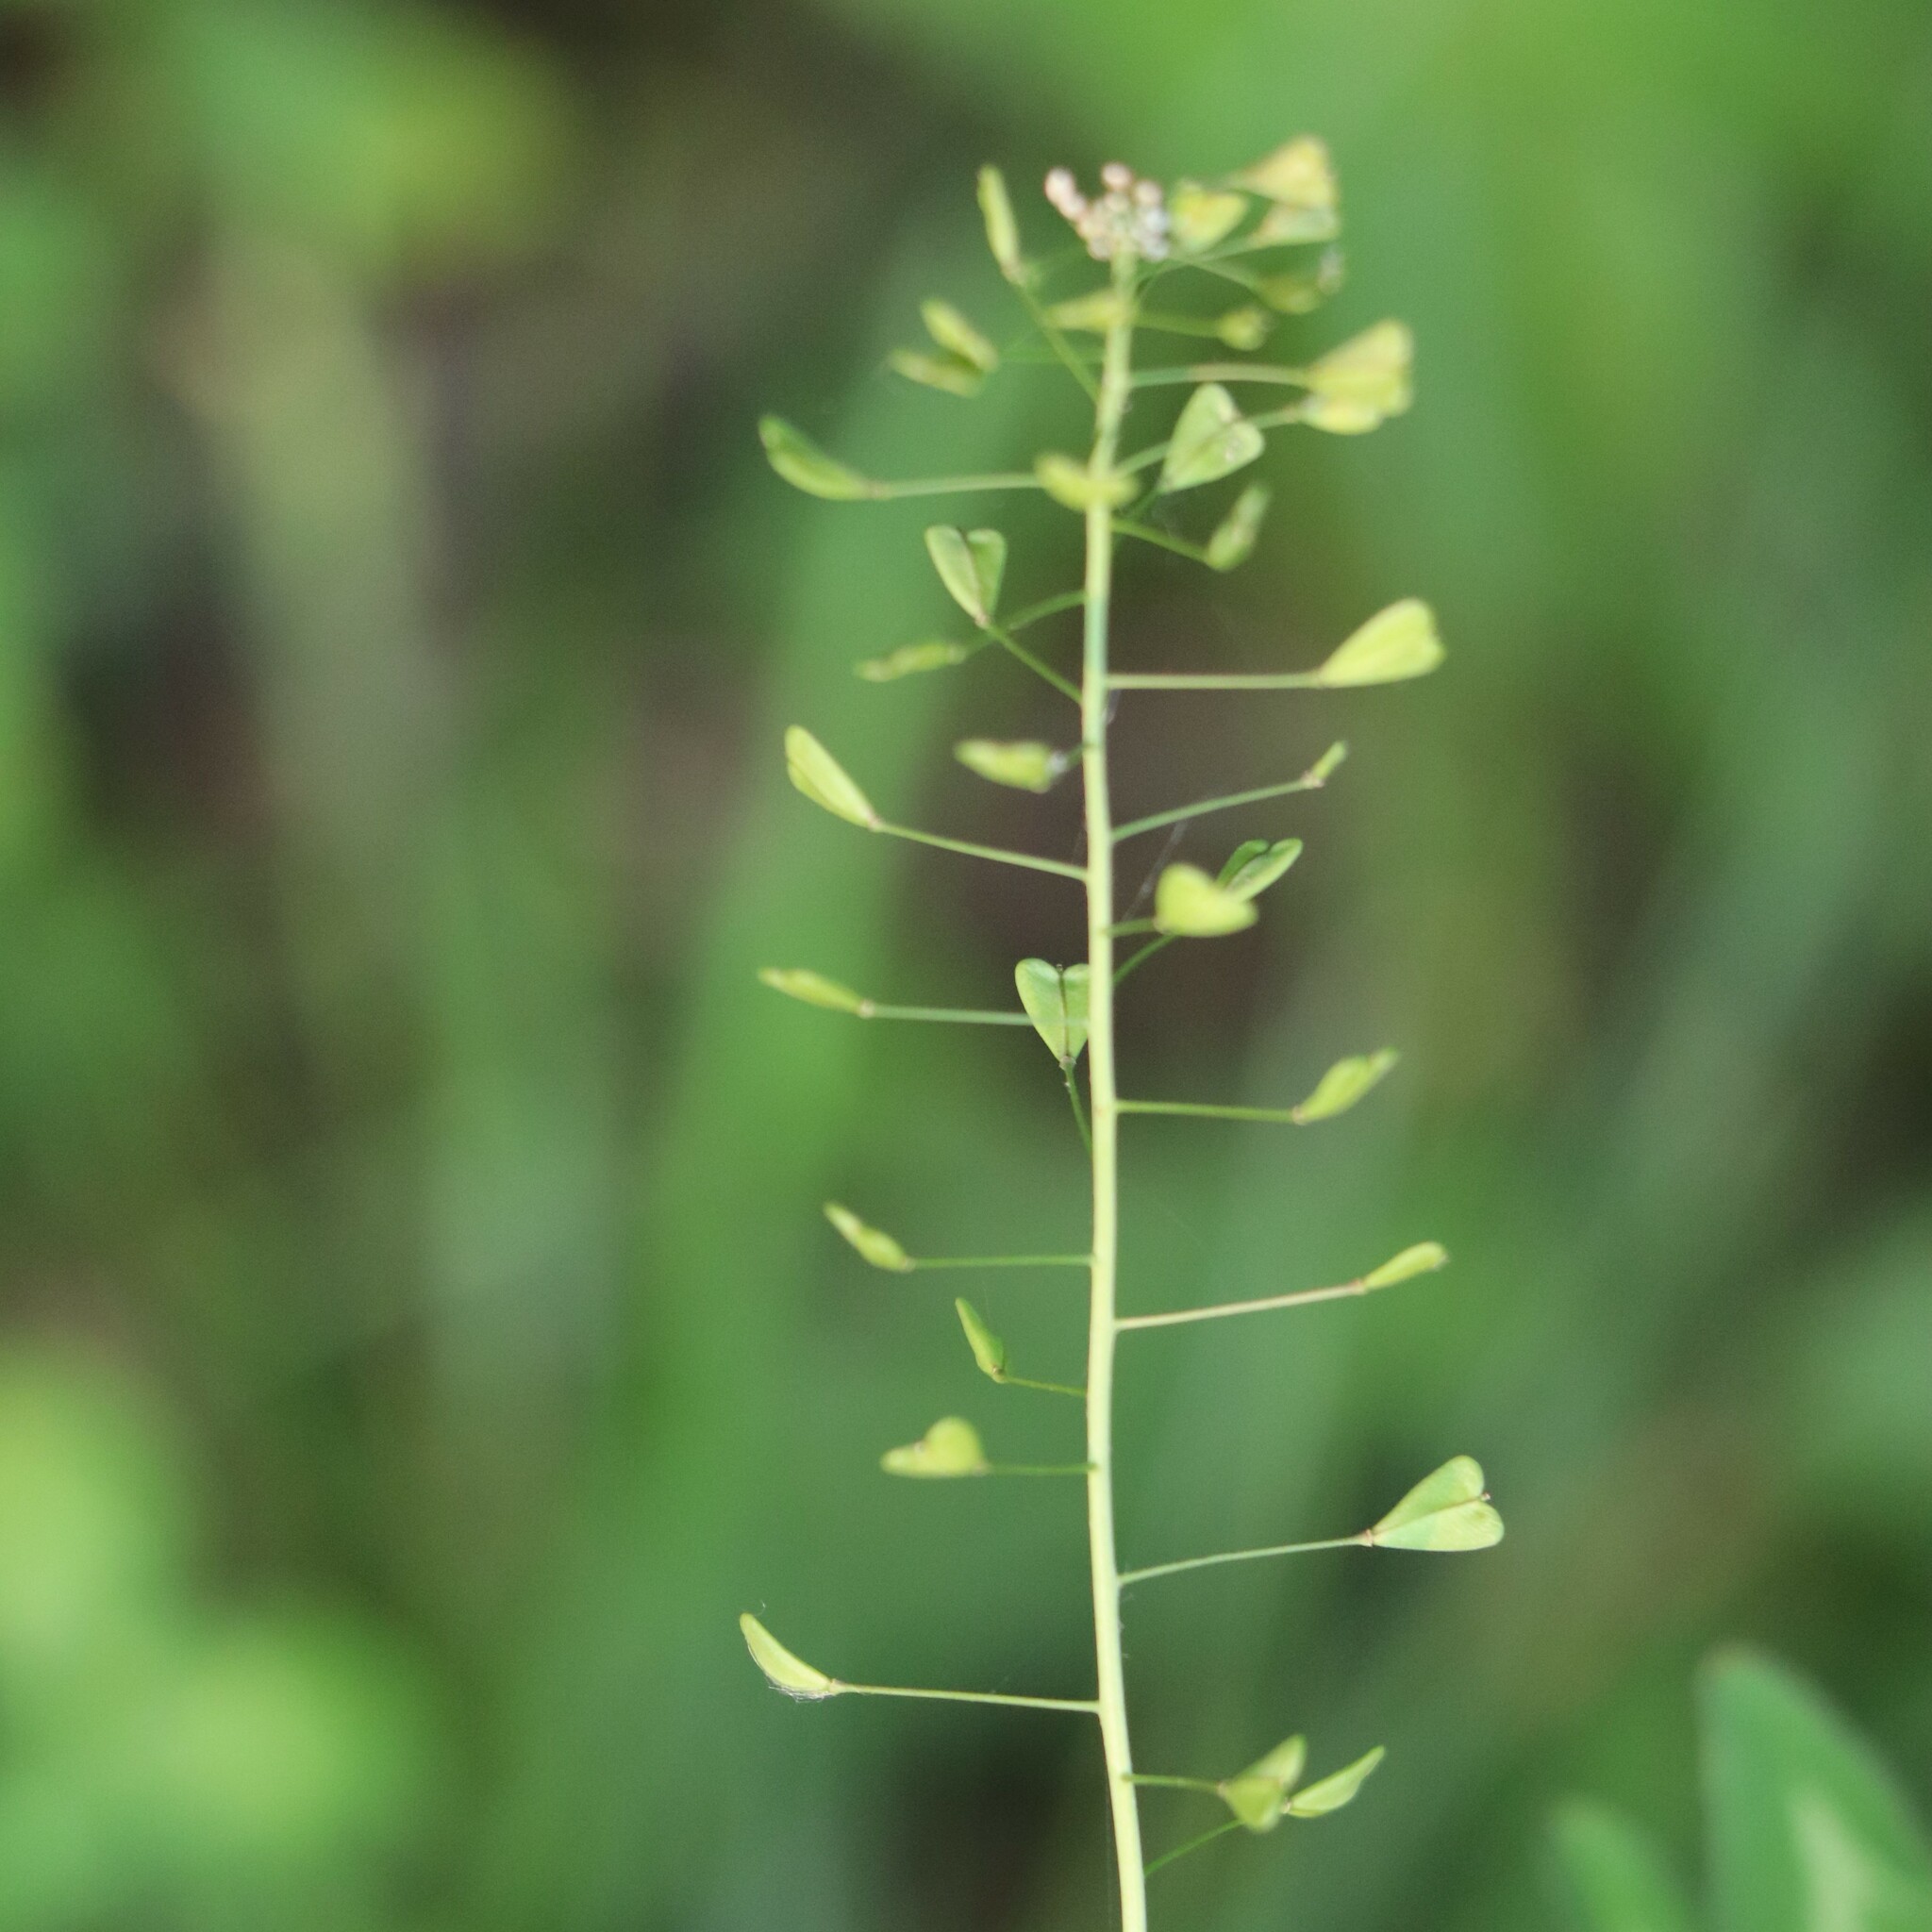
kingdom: Plantae
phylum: Tracheophyta
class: Magnoliopsida
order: Brassicales
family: Brassicaceae
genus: Capsella
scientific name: Capsella bursa-pastoris
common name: Shepherd's purse
